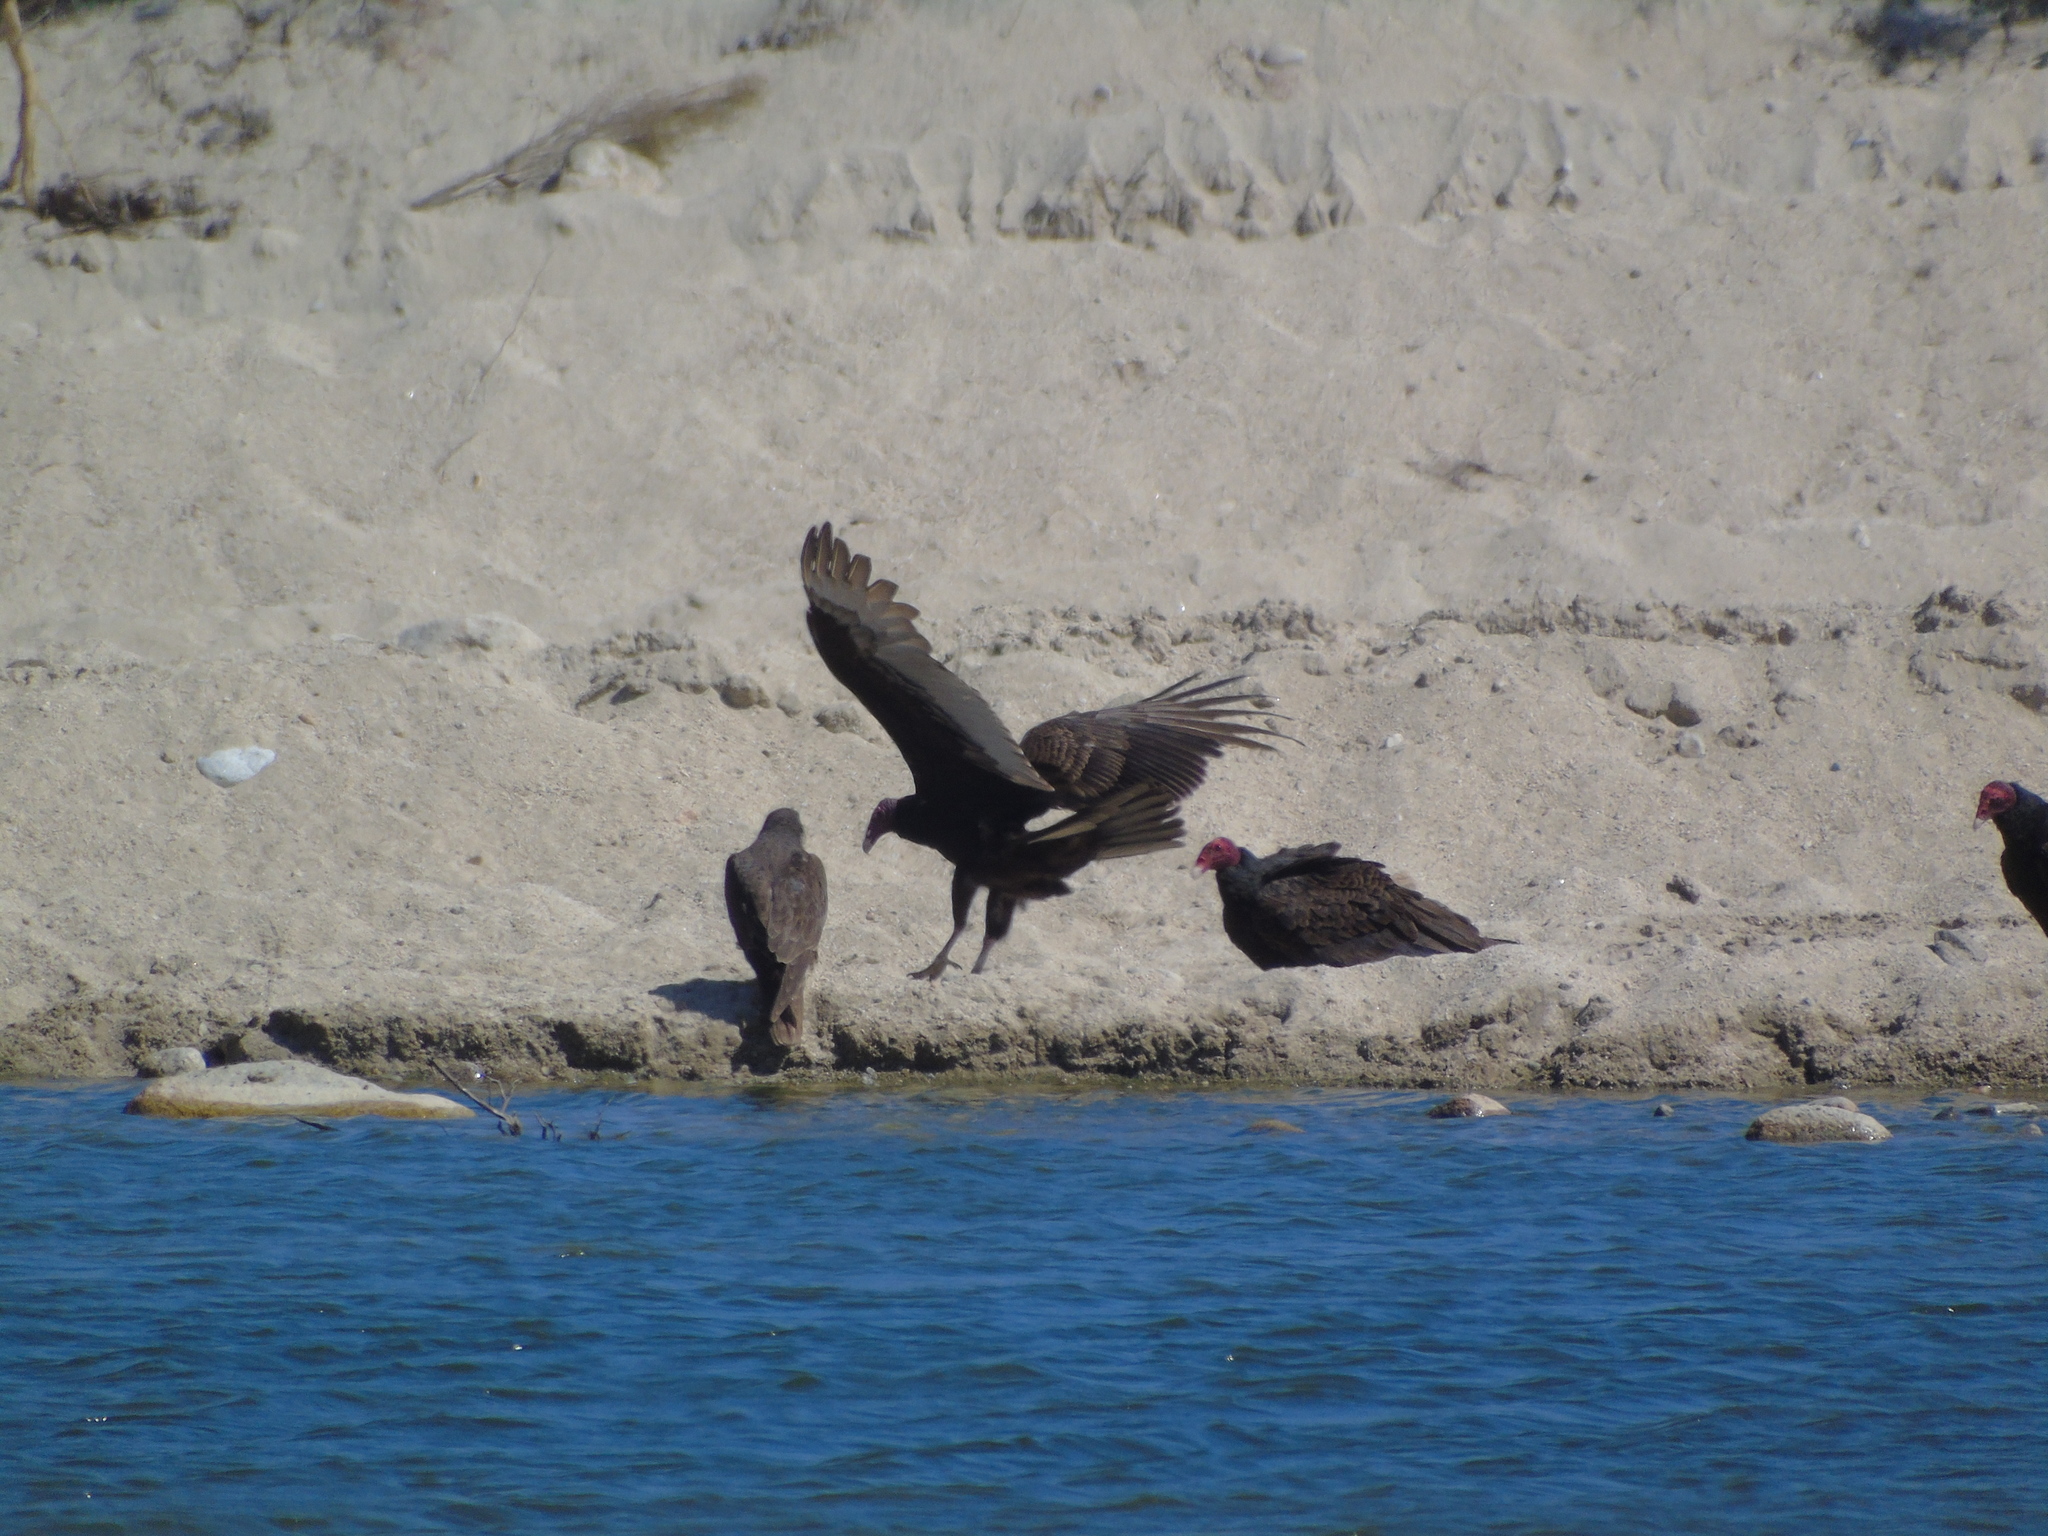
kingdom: Animalia
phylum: Chordata
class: Aves
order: Falconiformes
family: Falconidae
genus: Falco
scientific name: Falco peregrinus
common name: Peregrine falcon
